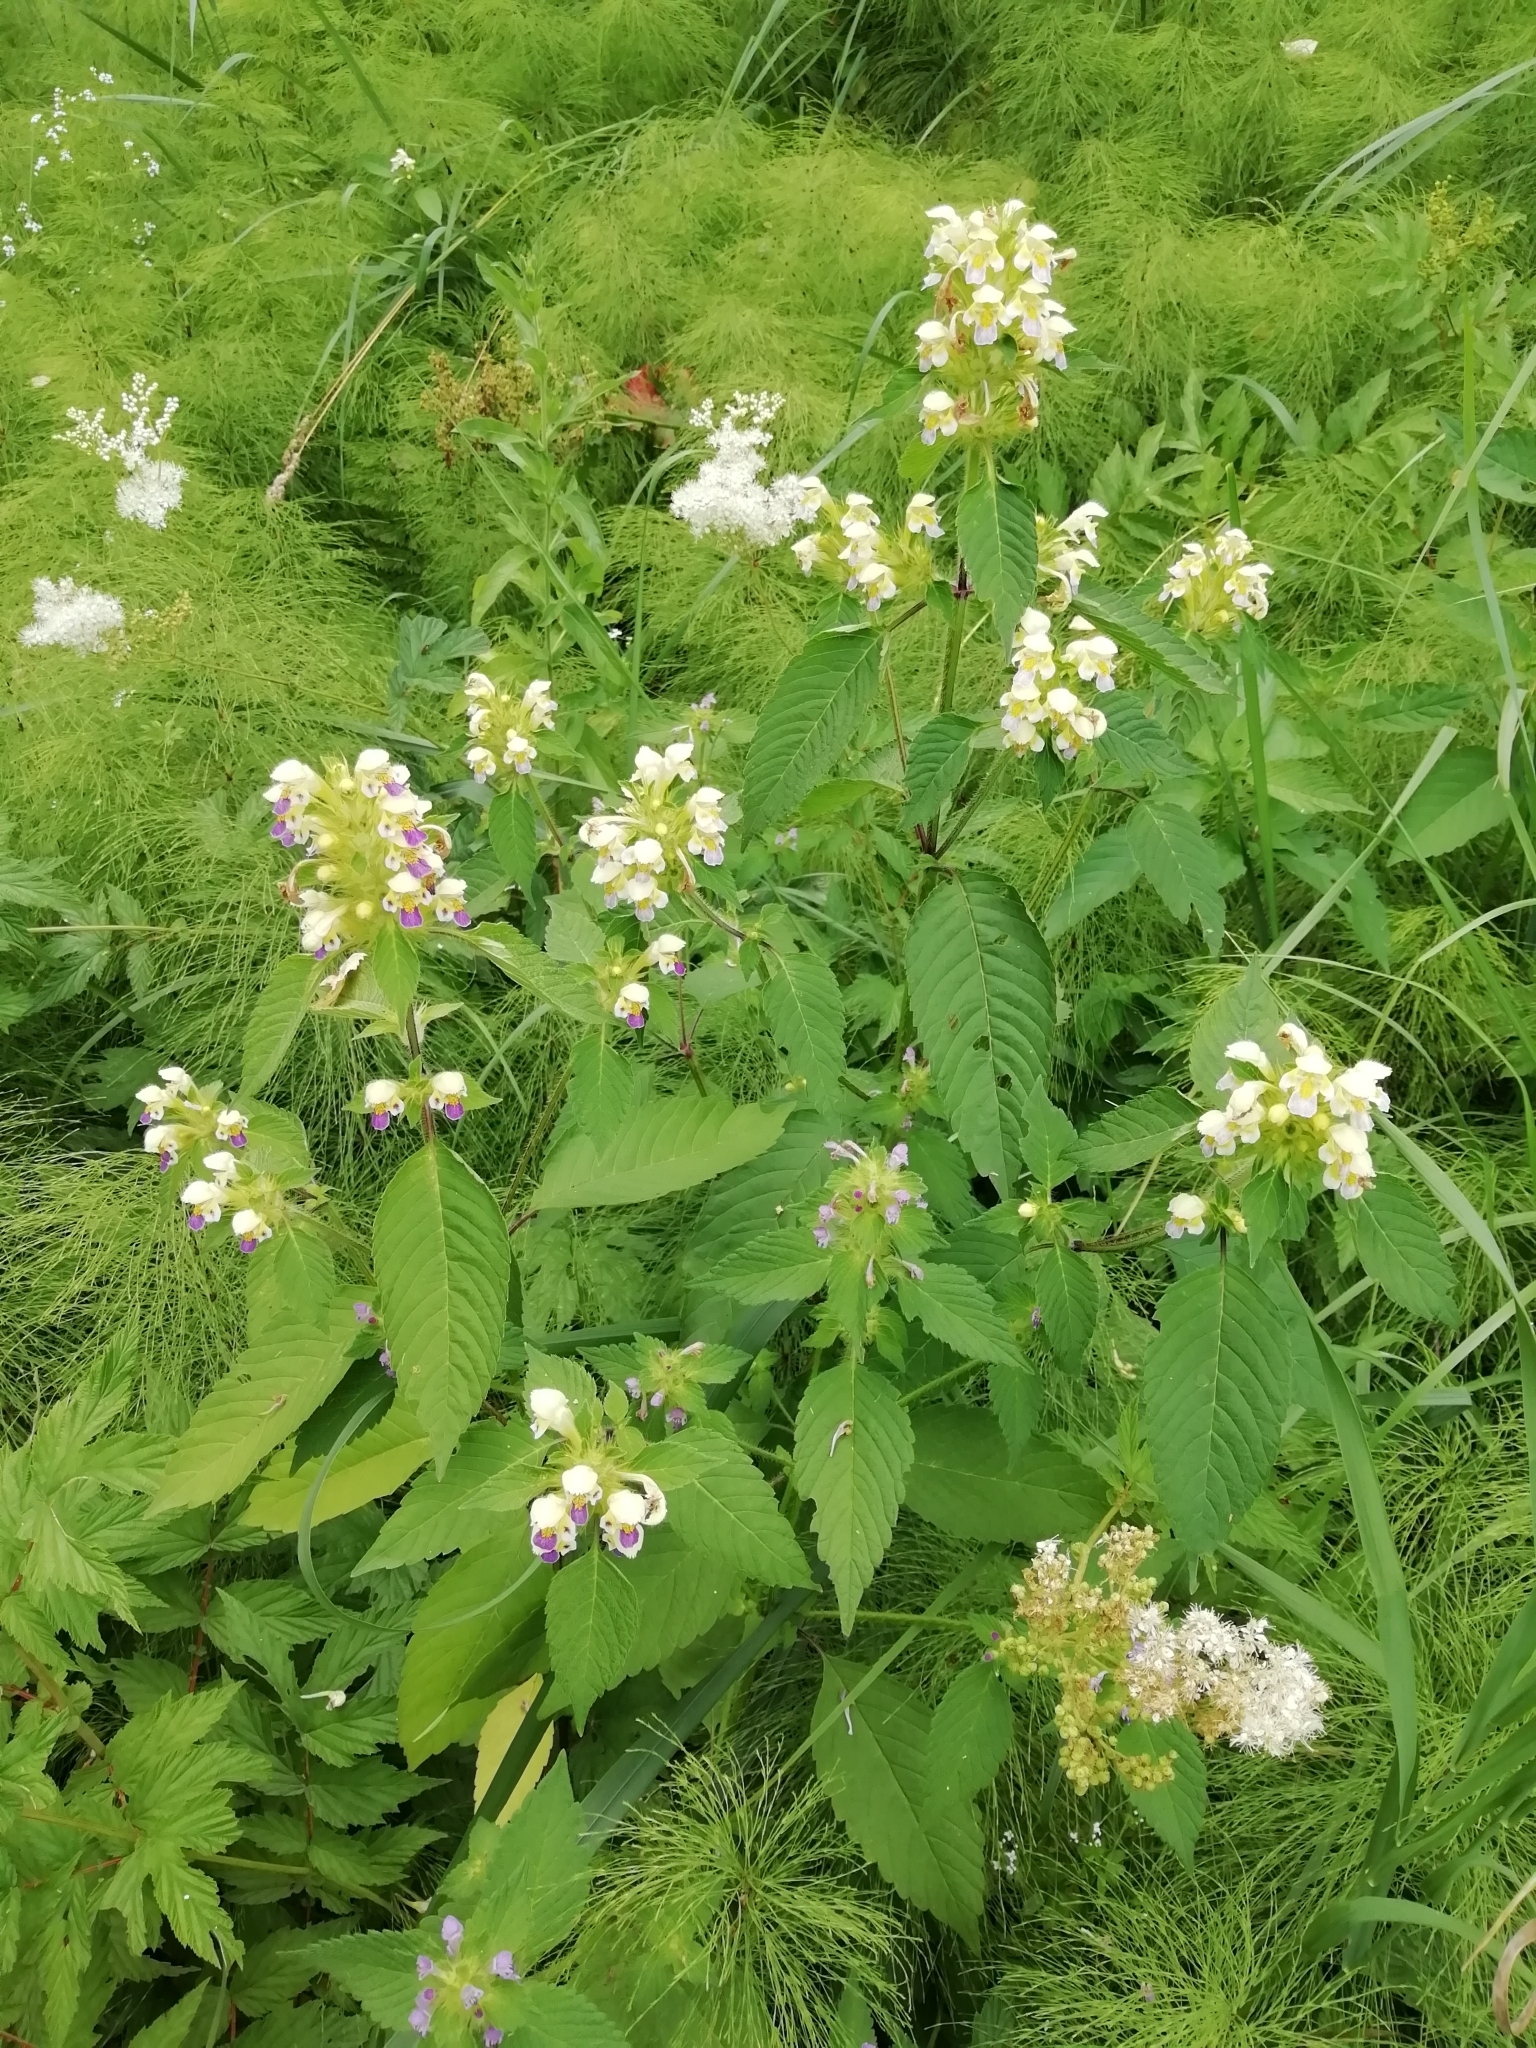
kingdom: Plantae
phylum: Tracheophyta
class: Magnoliopsida
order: Lamiales
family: Lamiaceae
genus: Galeopsis
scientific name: Galeopsis speciosa
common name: Large-flowered hemp-nettle
